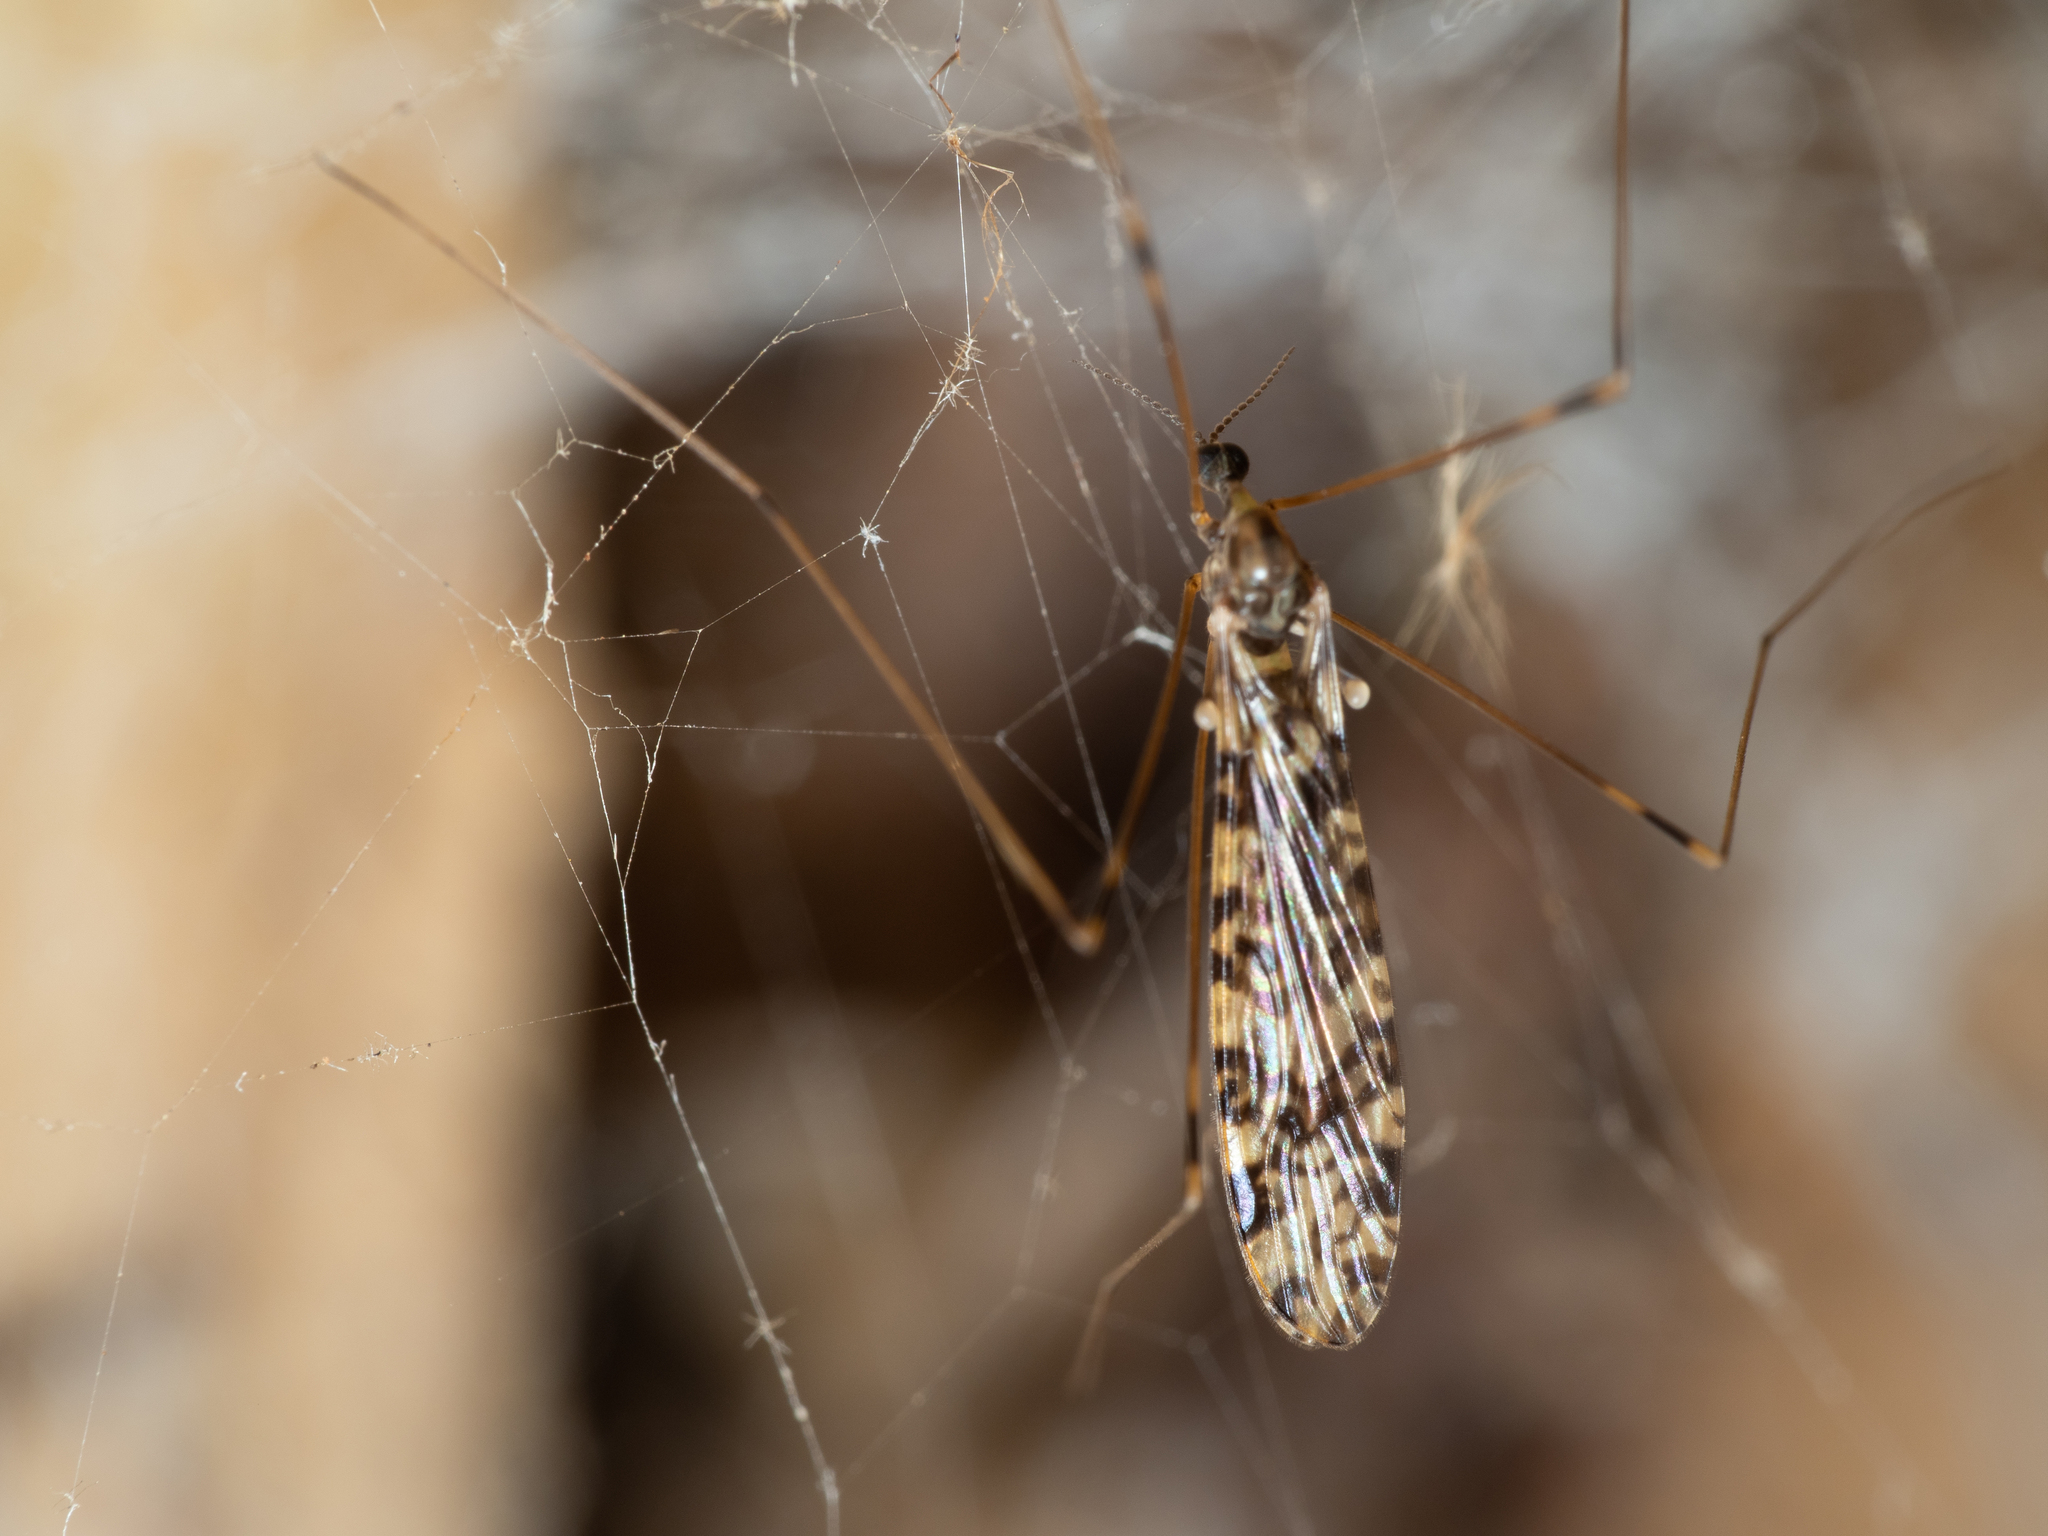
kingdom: Animalia
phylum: Arthropoda
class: Insecta
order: Diptera
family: Limoniidae
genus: Discobola
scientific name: Discobola australis
